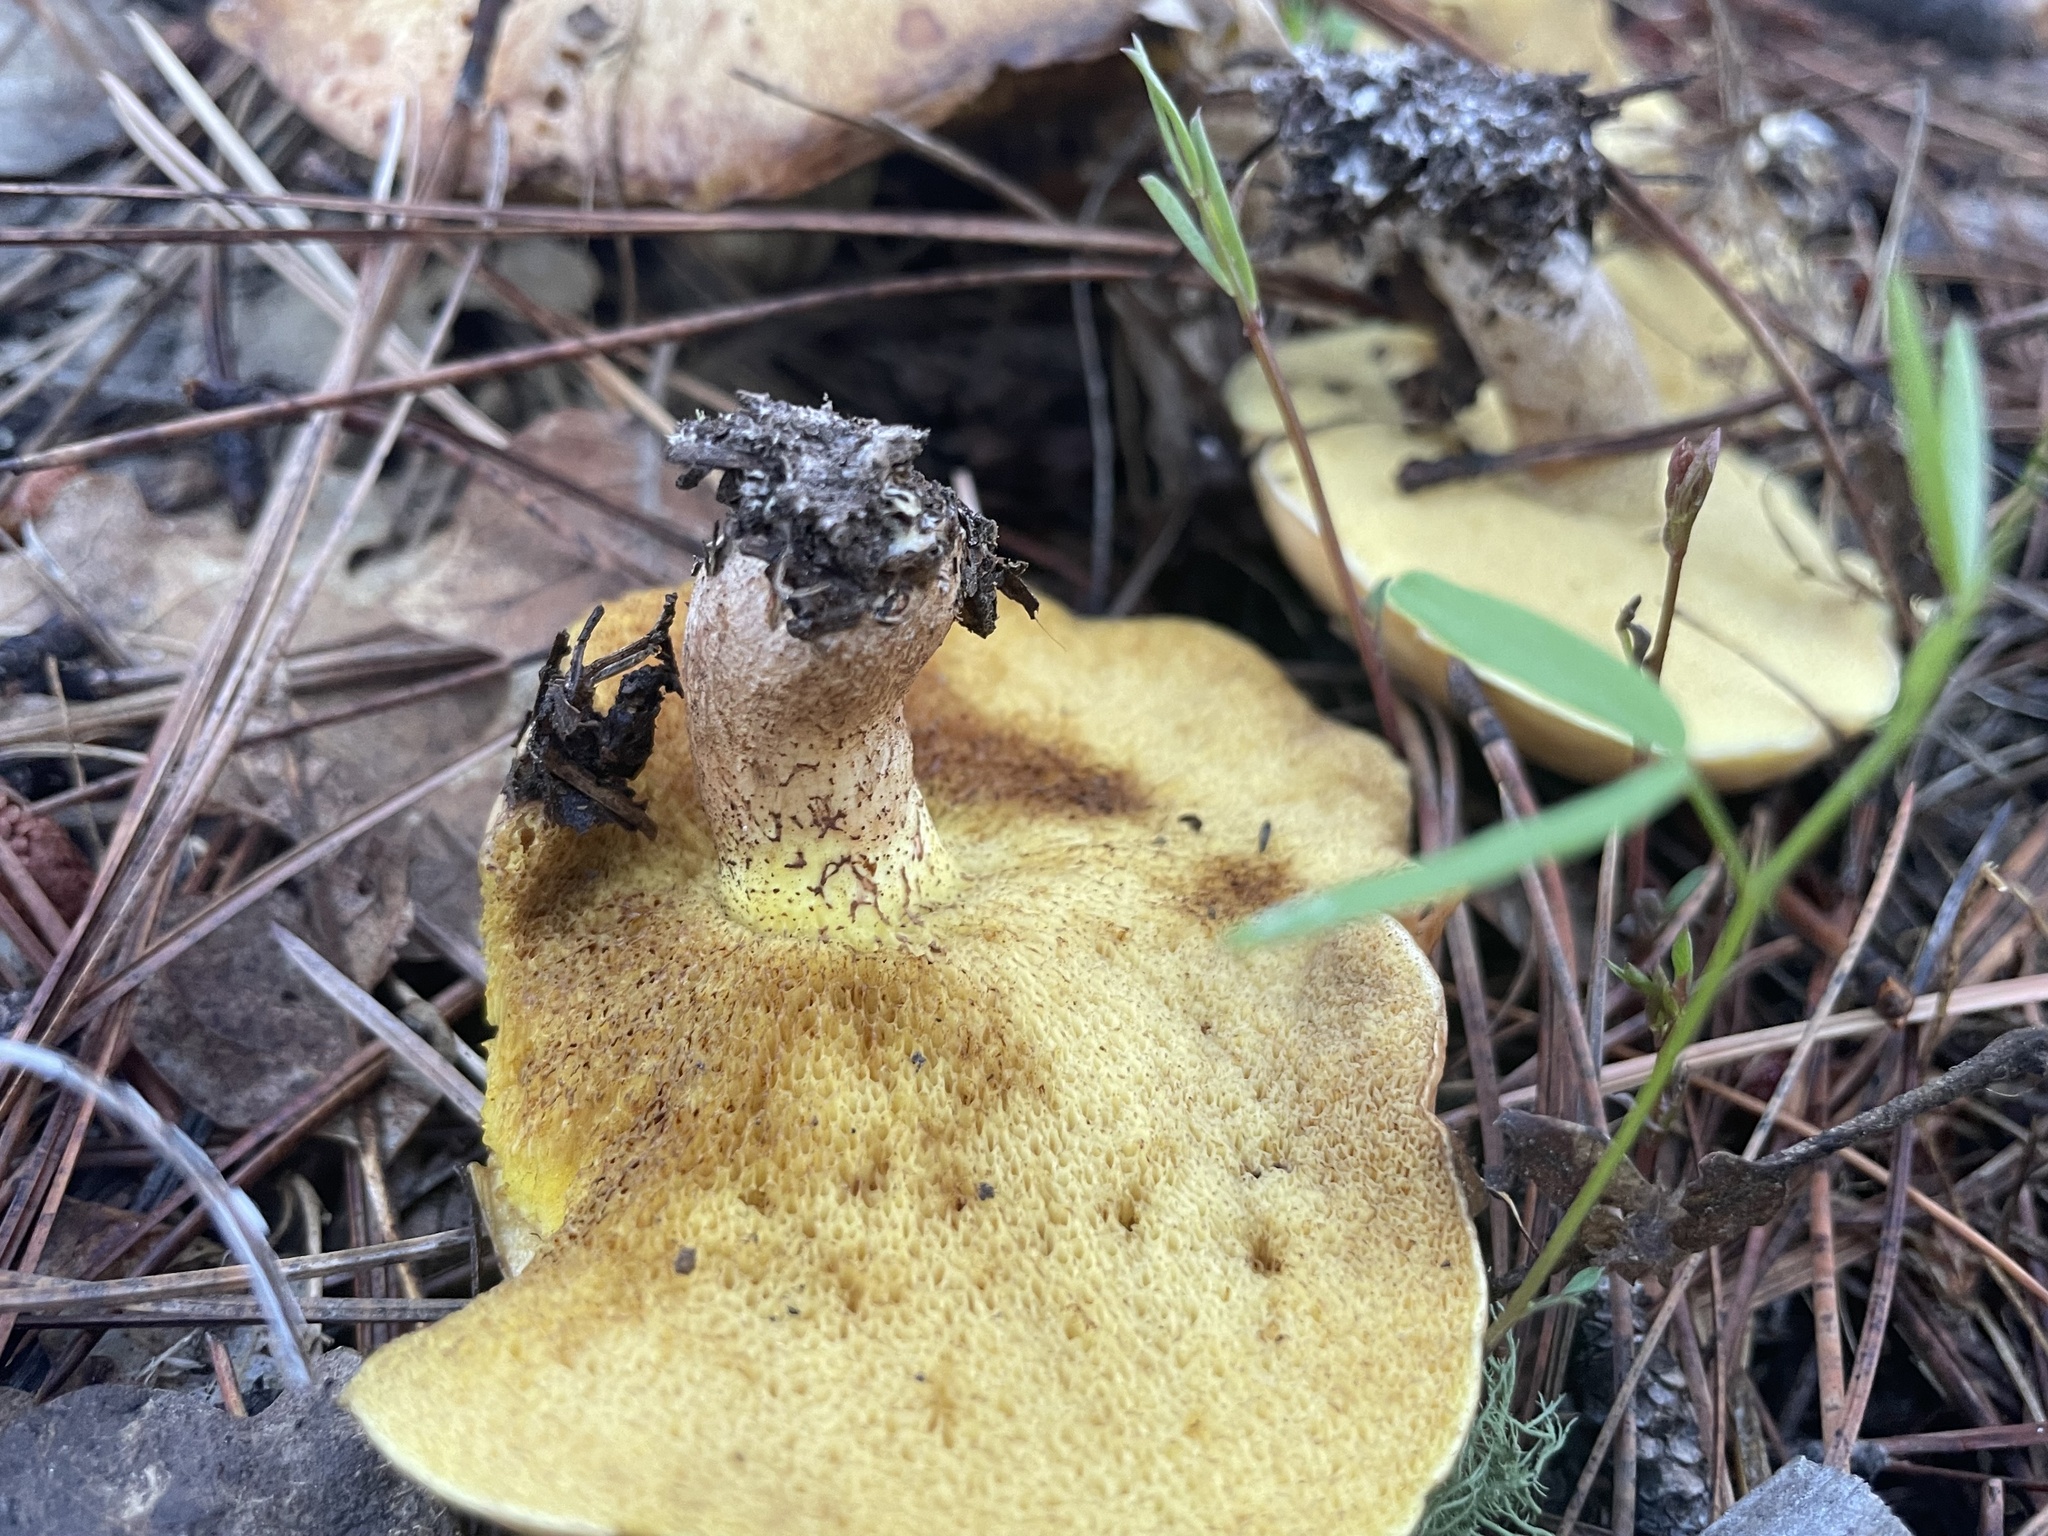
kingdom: Fungi
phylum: Basidiomycota
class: Agaricomycetes
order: Boletales
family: Suillaceae
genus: Suillus
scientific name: Suillus kaibabensis
